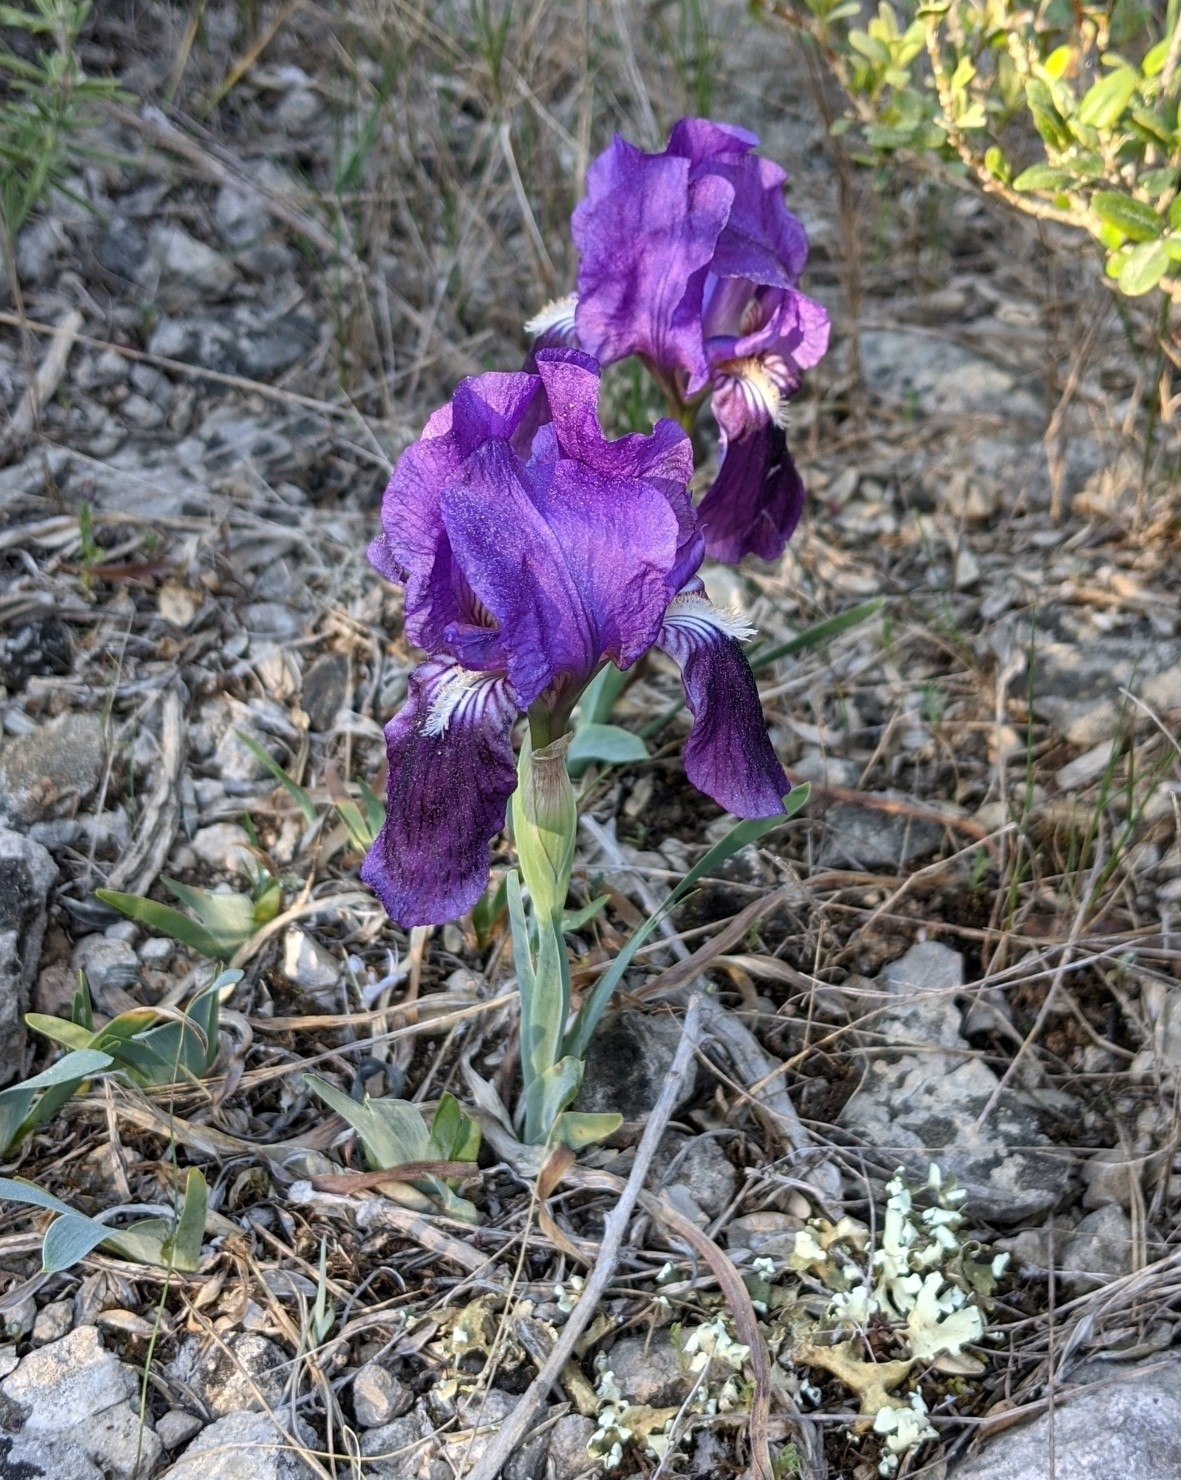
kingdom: Plantae
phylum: Tracheophyta
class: Liliopsida
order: Asparagales
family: Iridaceae
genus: Iris
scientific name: Iris lutescens
